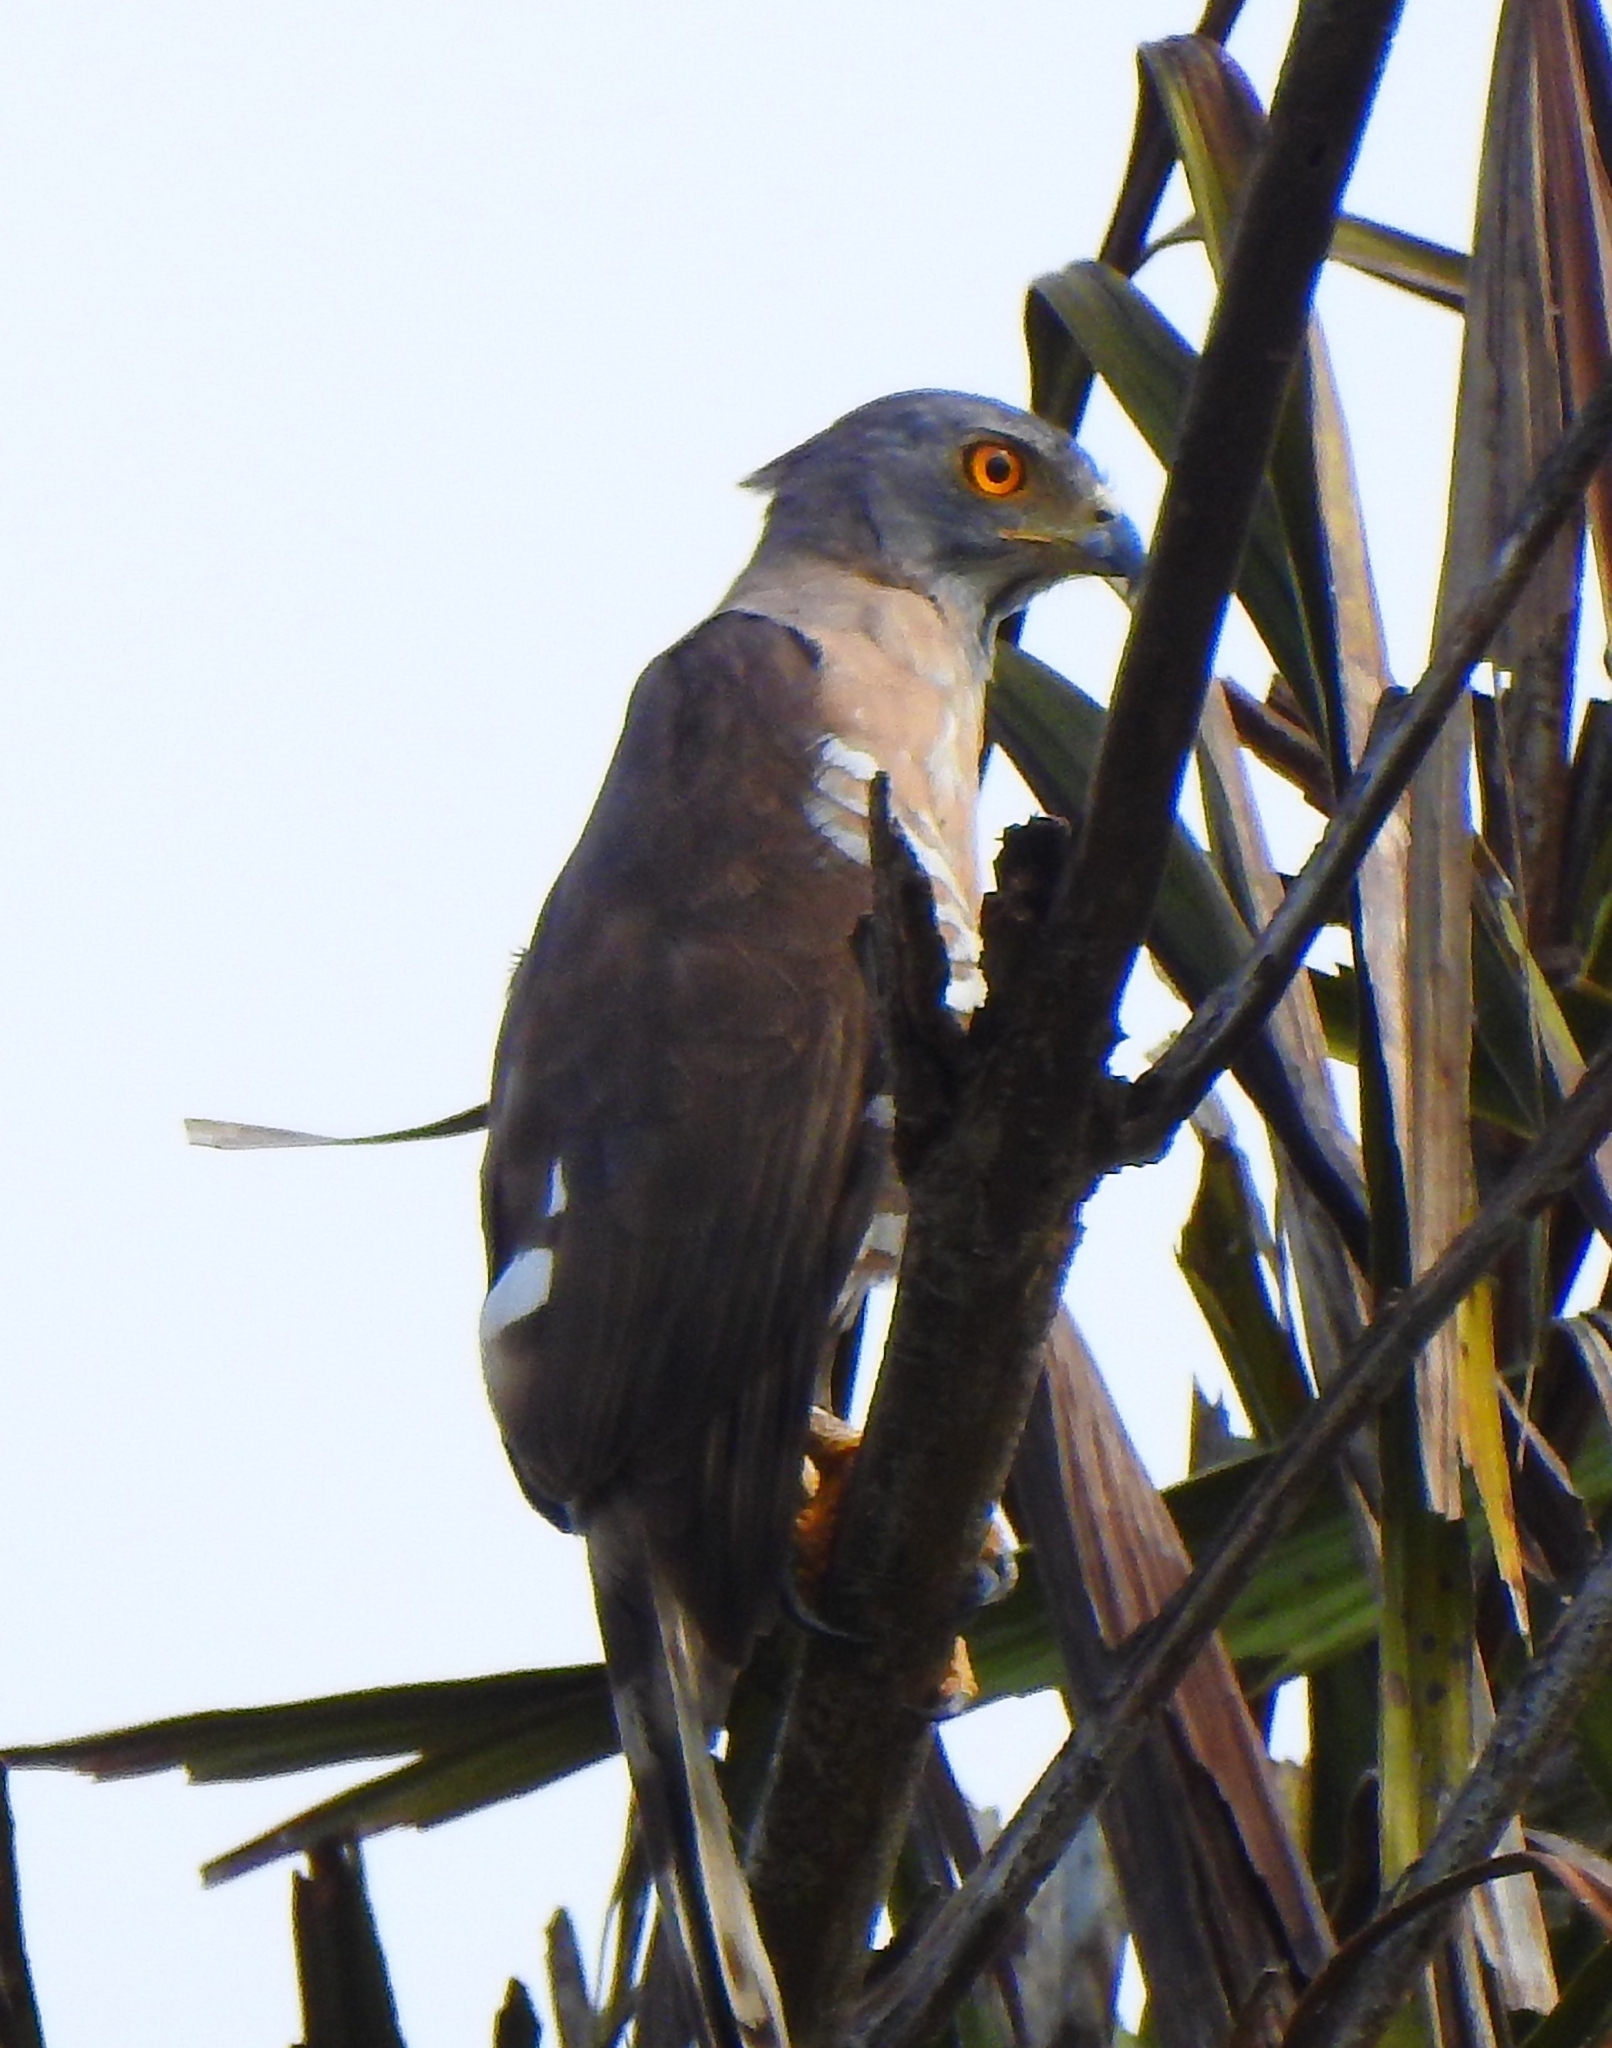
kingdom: Animalia
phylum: Chordata
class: Aves
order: Accipitriformes
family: Accipitridae
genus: Accipiter
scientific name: Accipiter trivirgatus
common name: Crested goshawk
